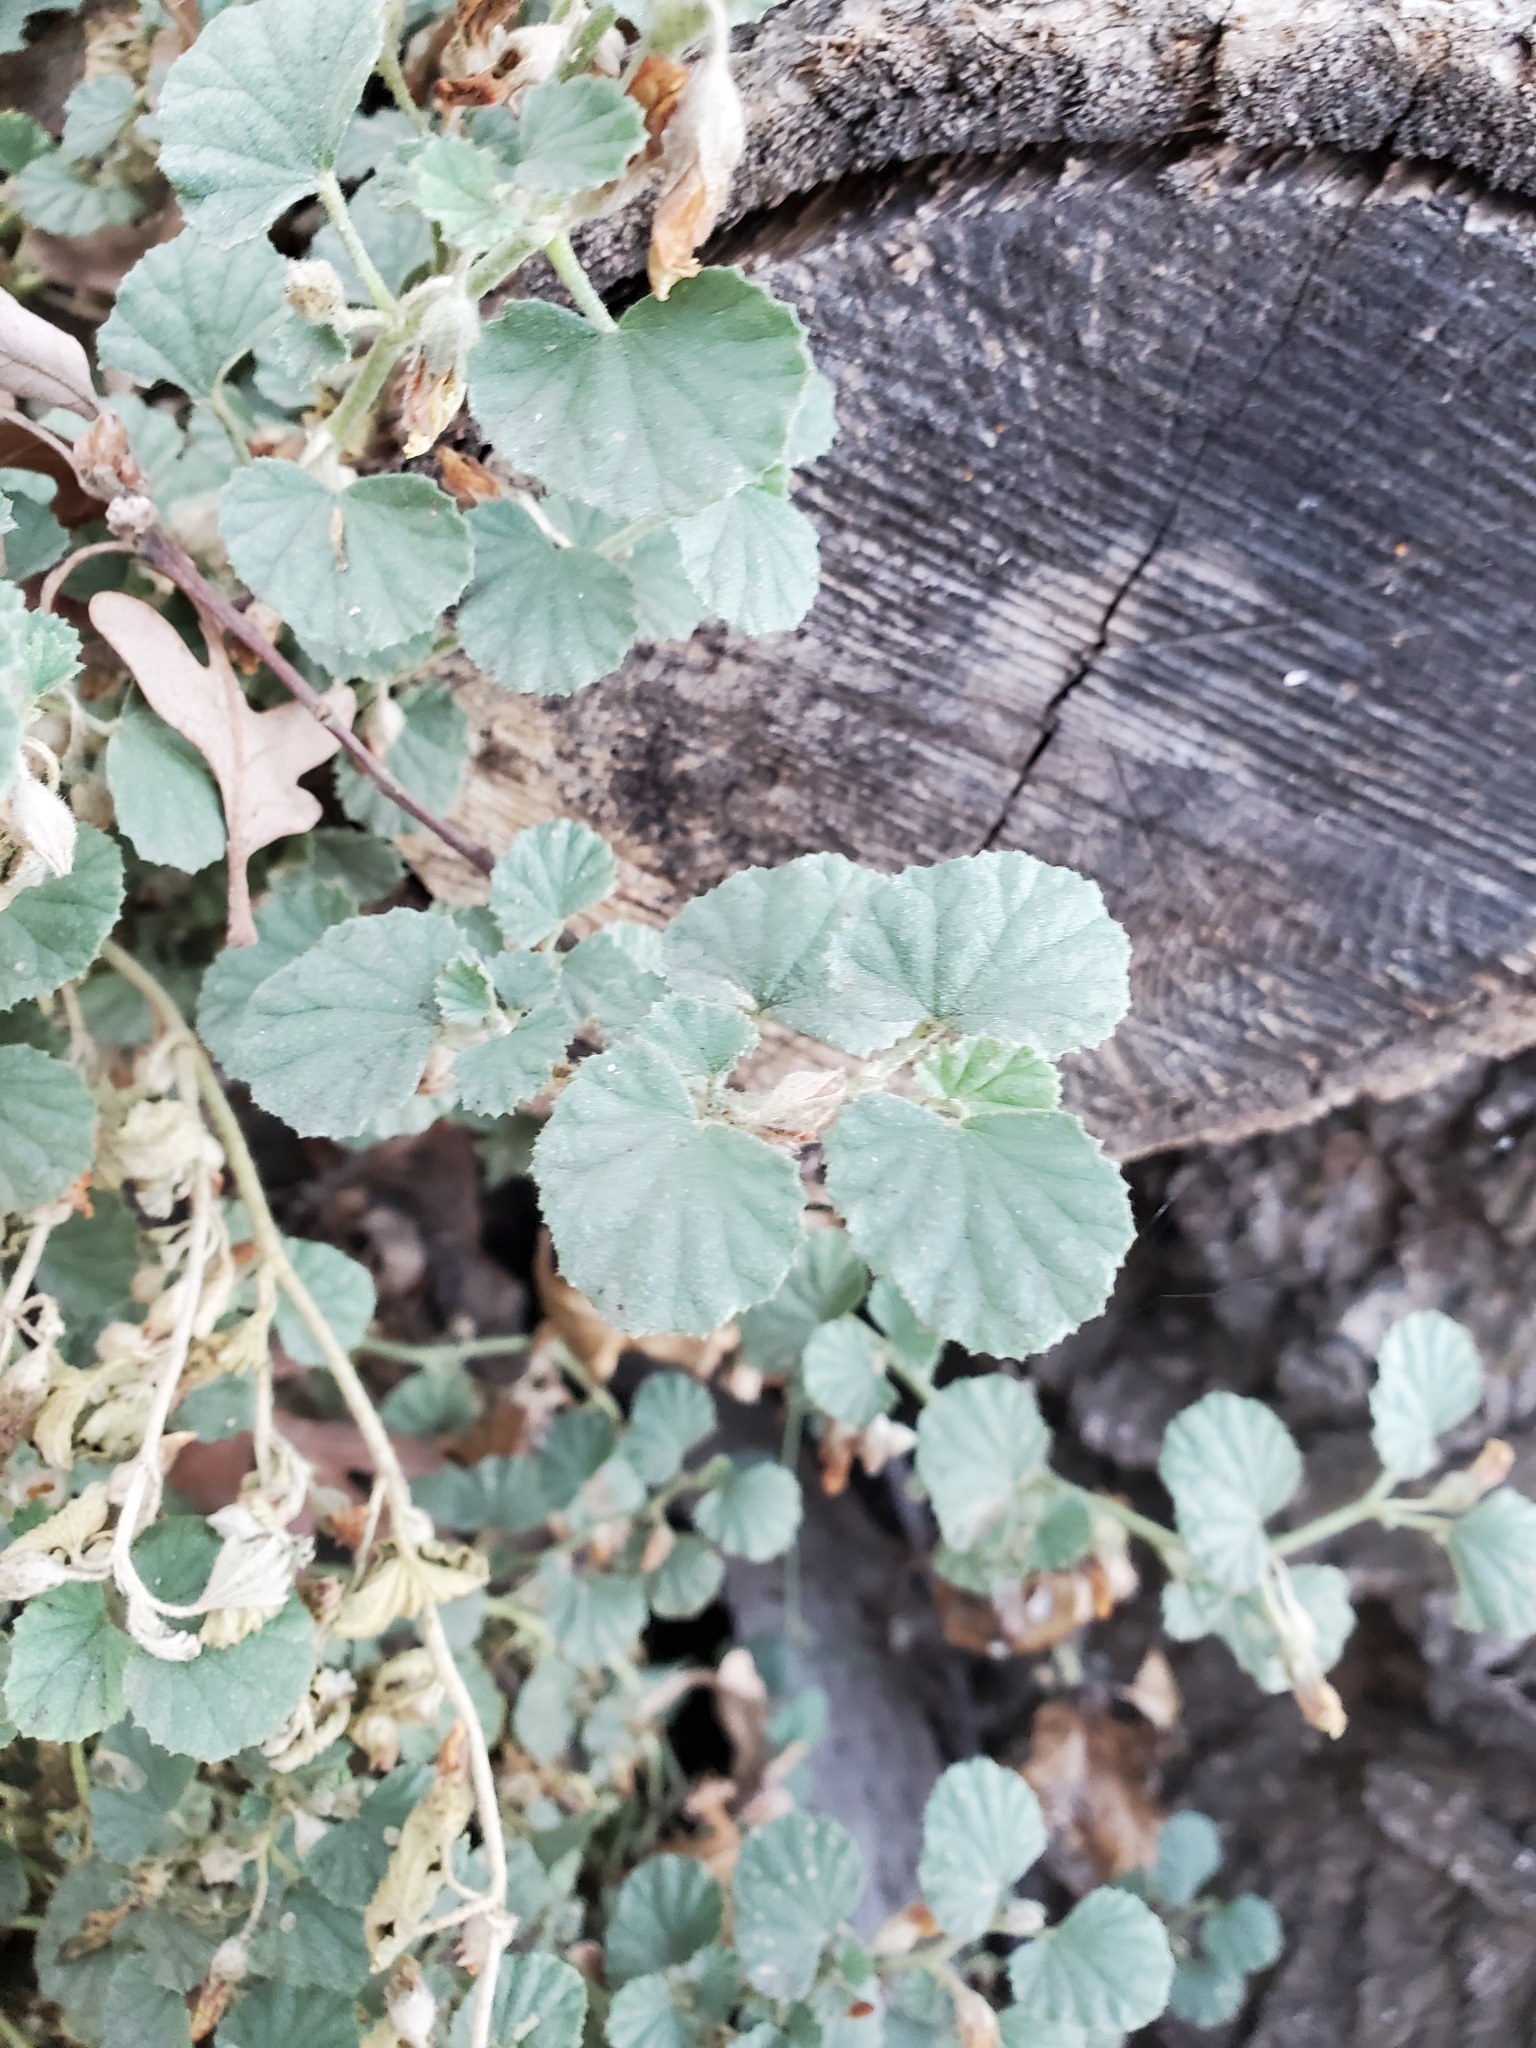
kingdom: Plantae
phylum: Tracheophyta
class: Magnoliopsida
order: Malvales
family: Malvaceae
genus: Malvella
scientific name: Malvella leprosa
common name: Alkali-mallow
